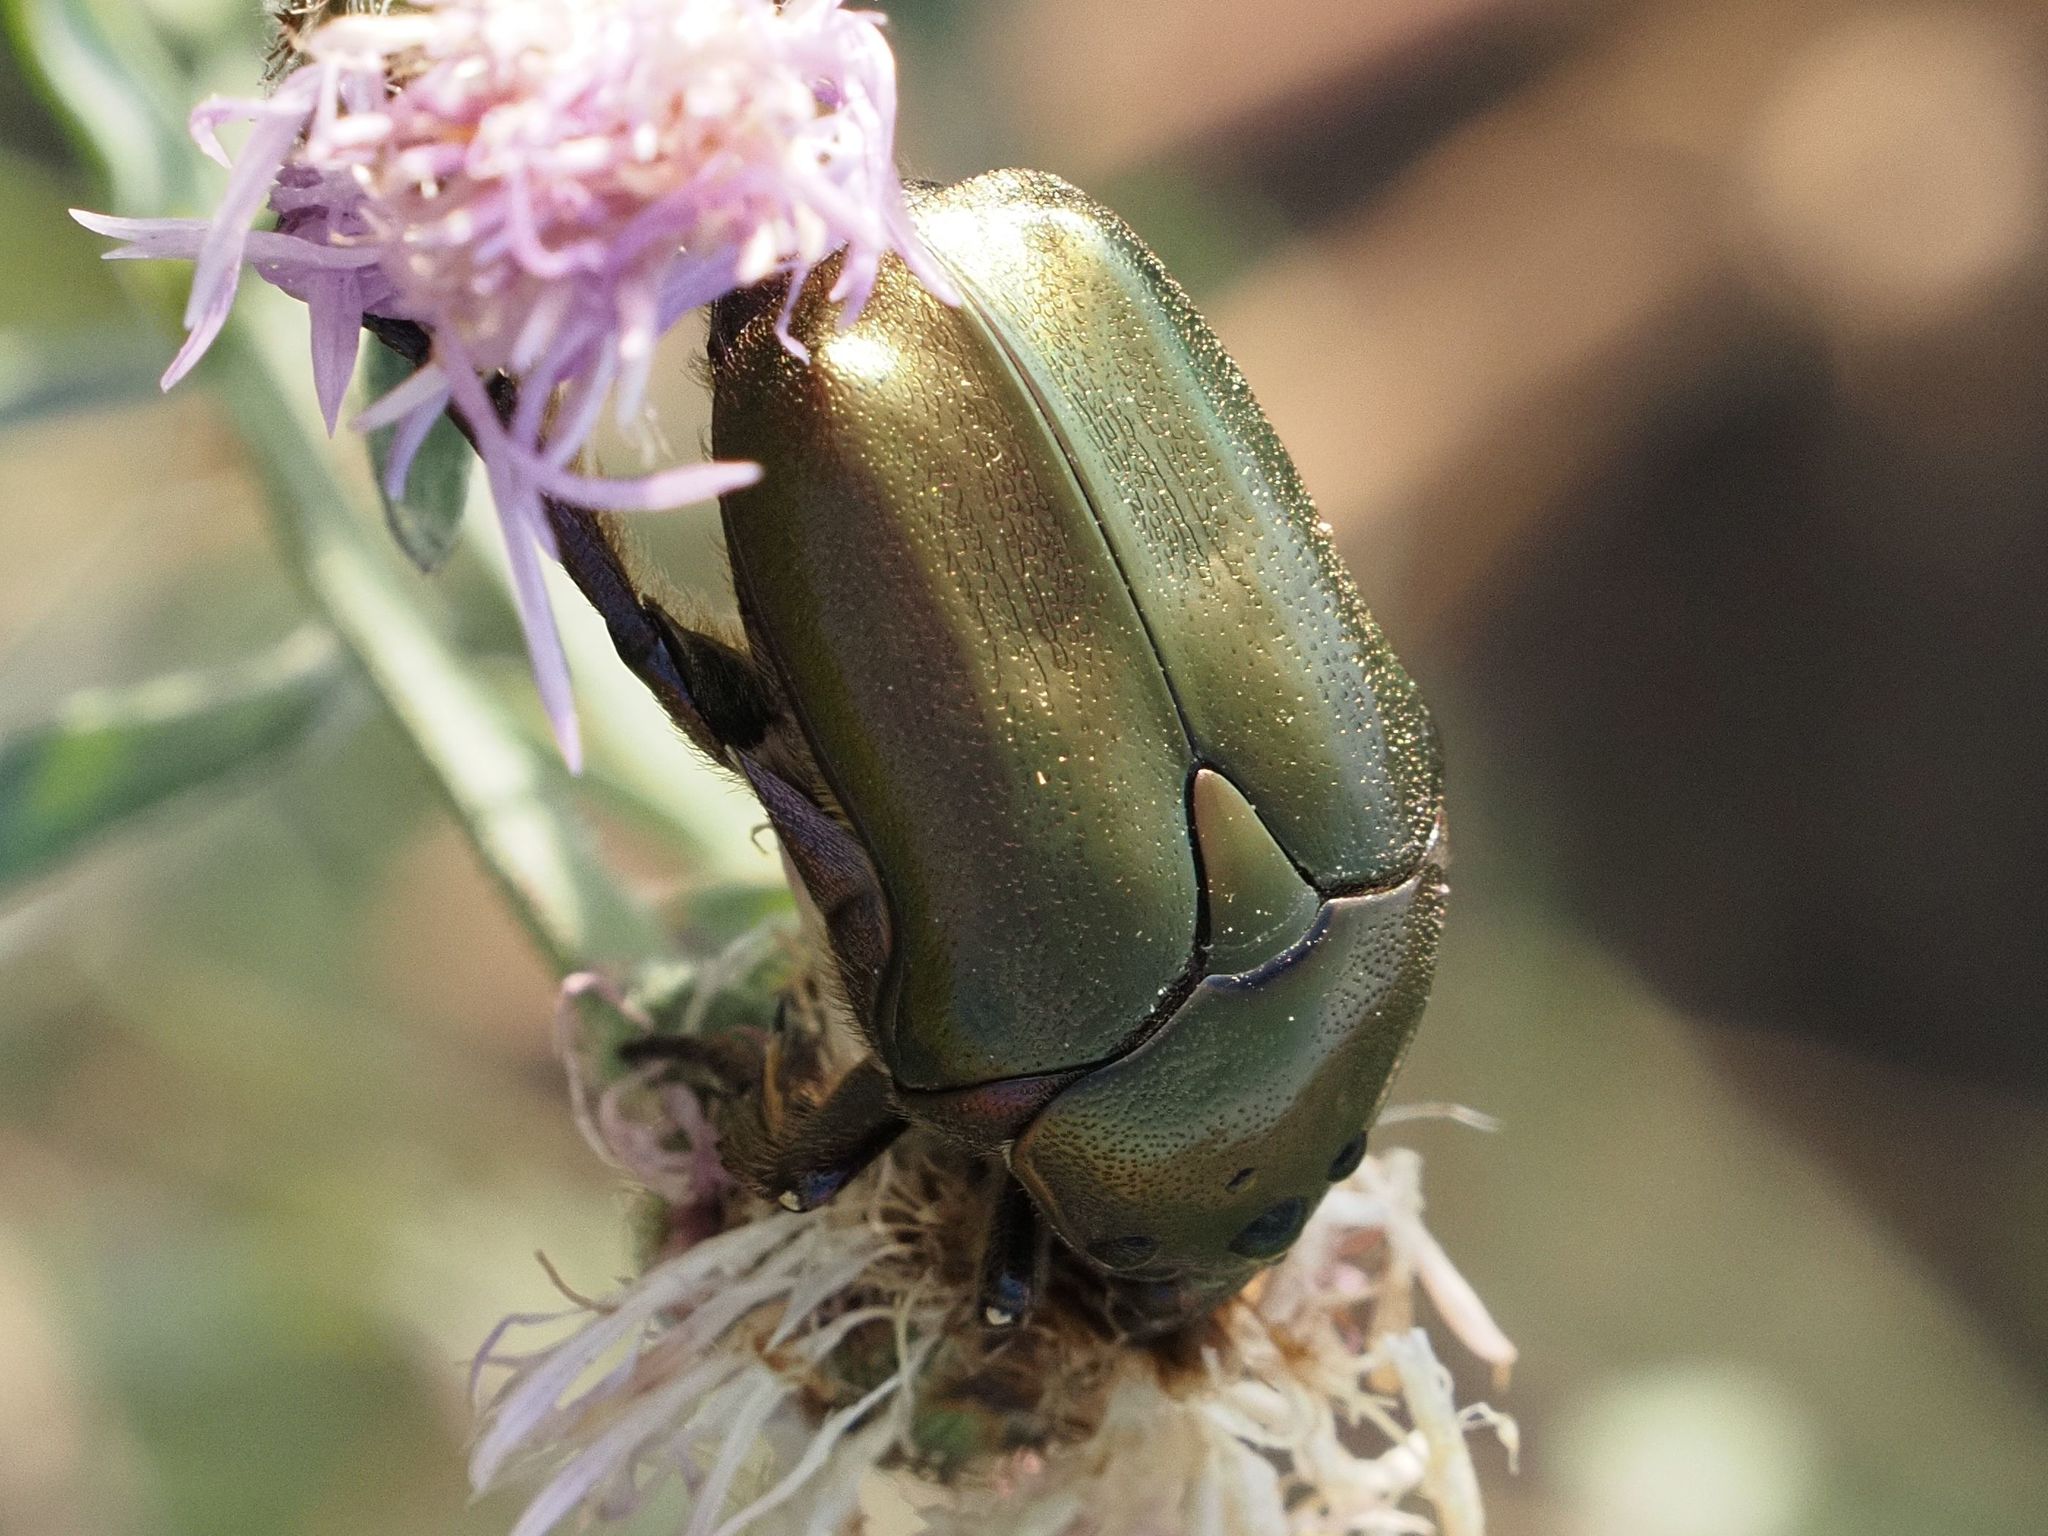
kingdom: Animalia
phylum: Arthropoda
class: Insecta
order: Coleoptera
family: Scarabaeidae
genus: Protaetia
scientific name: Protaetia cuprea
